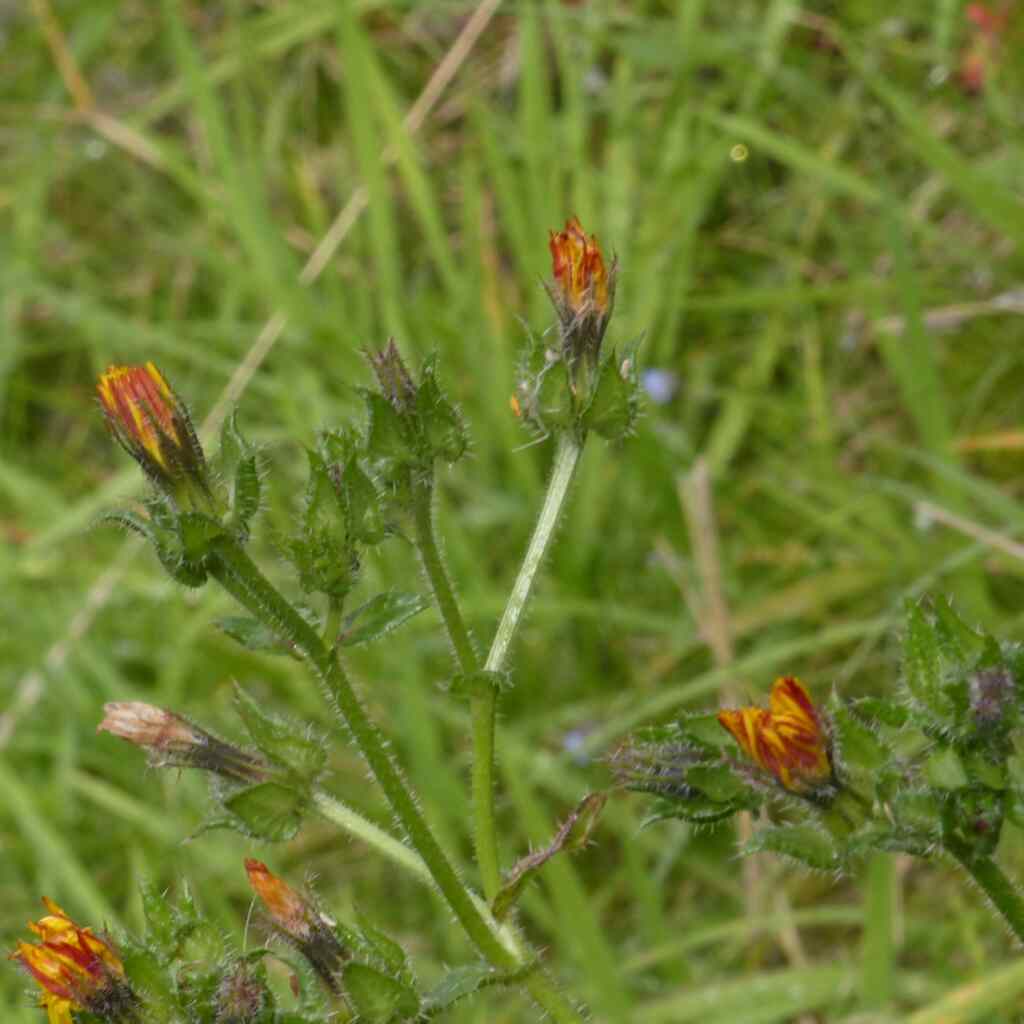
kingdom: Plantae
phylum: Tracheophyta
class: Magnoliopsida
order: Asterales
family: Asteraceae
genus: Helminthotheca
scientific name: Helminthotheca echioides
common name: Ox-tongue
